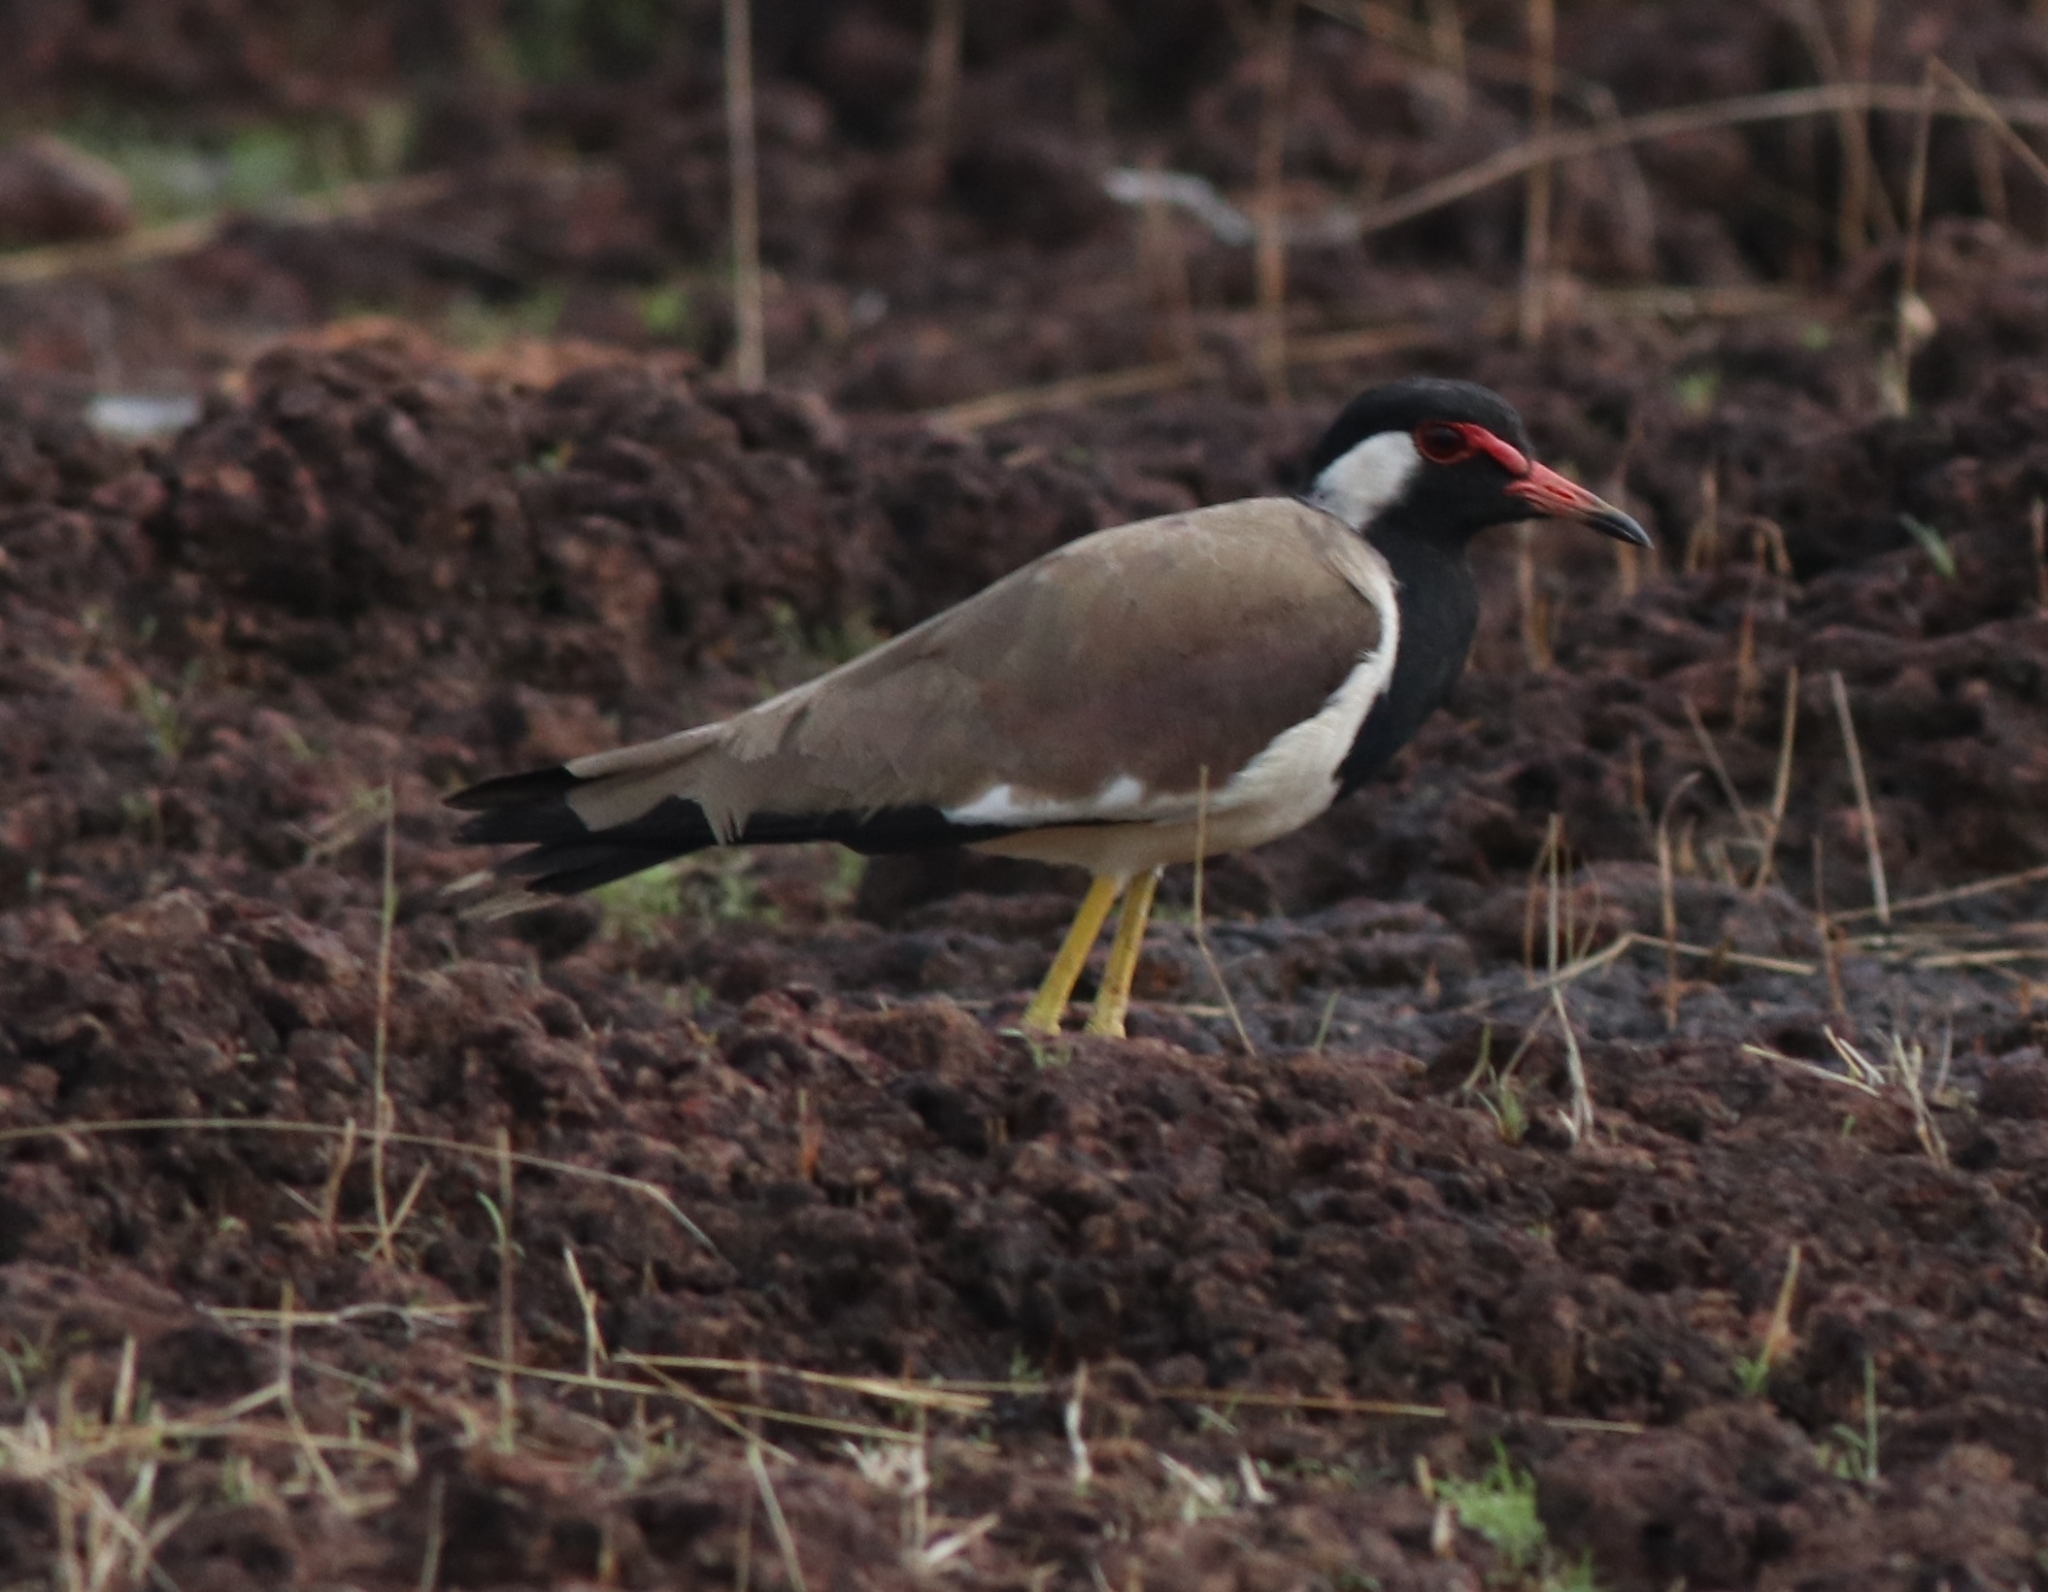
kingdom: Animalia
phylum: Chordata
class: Aves
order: Charadriiformes
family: Charadriidae
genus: Vanellus
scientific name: Vanellus indicus
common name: Red-wattled lapwing
